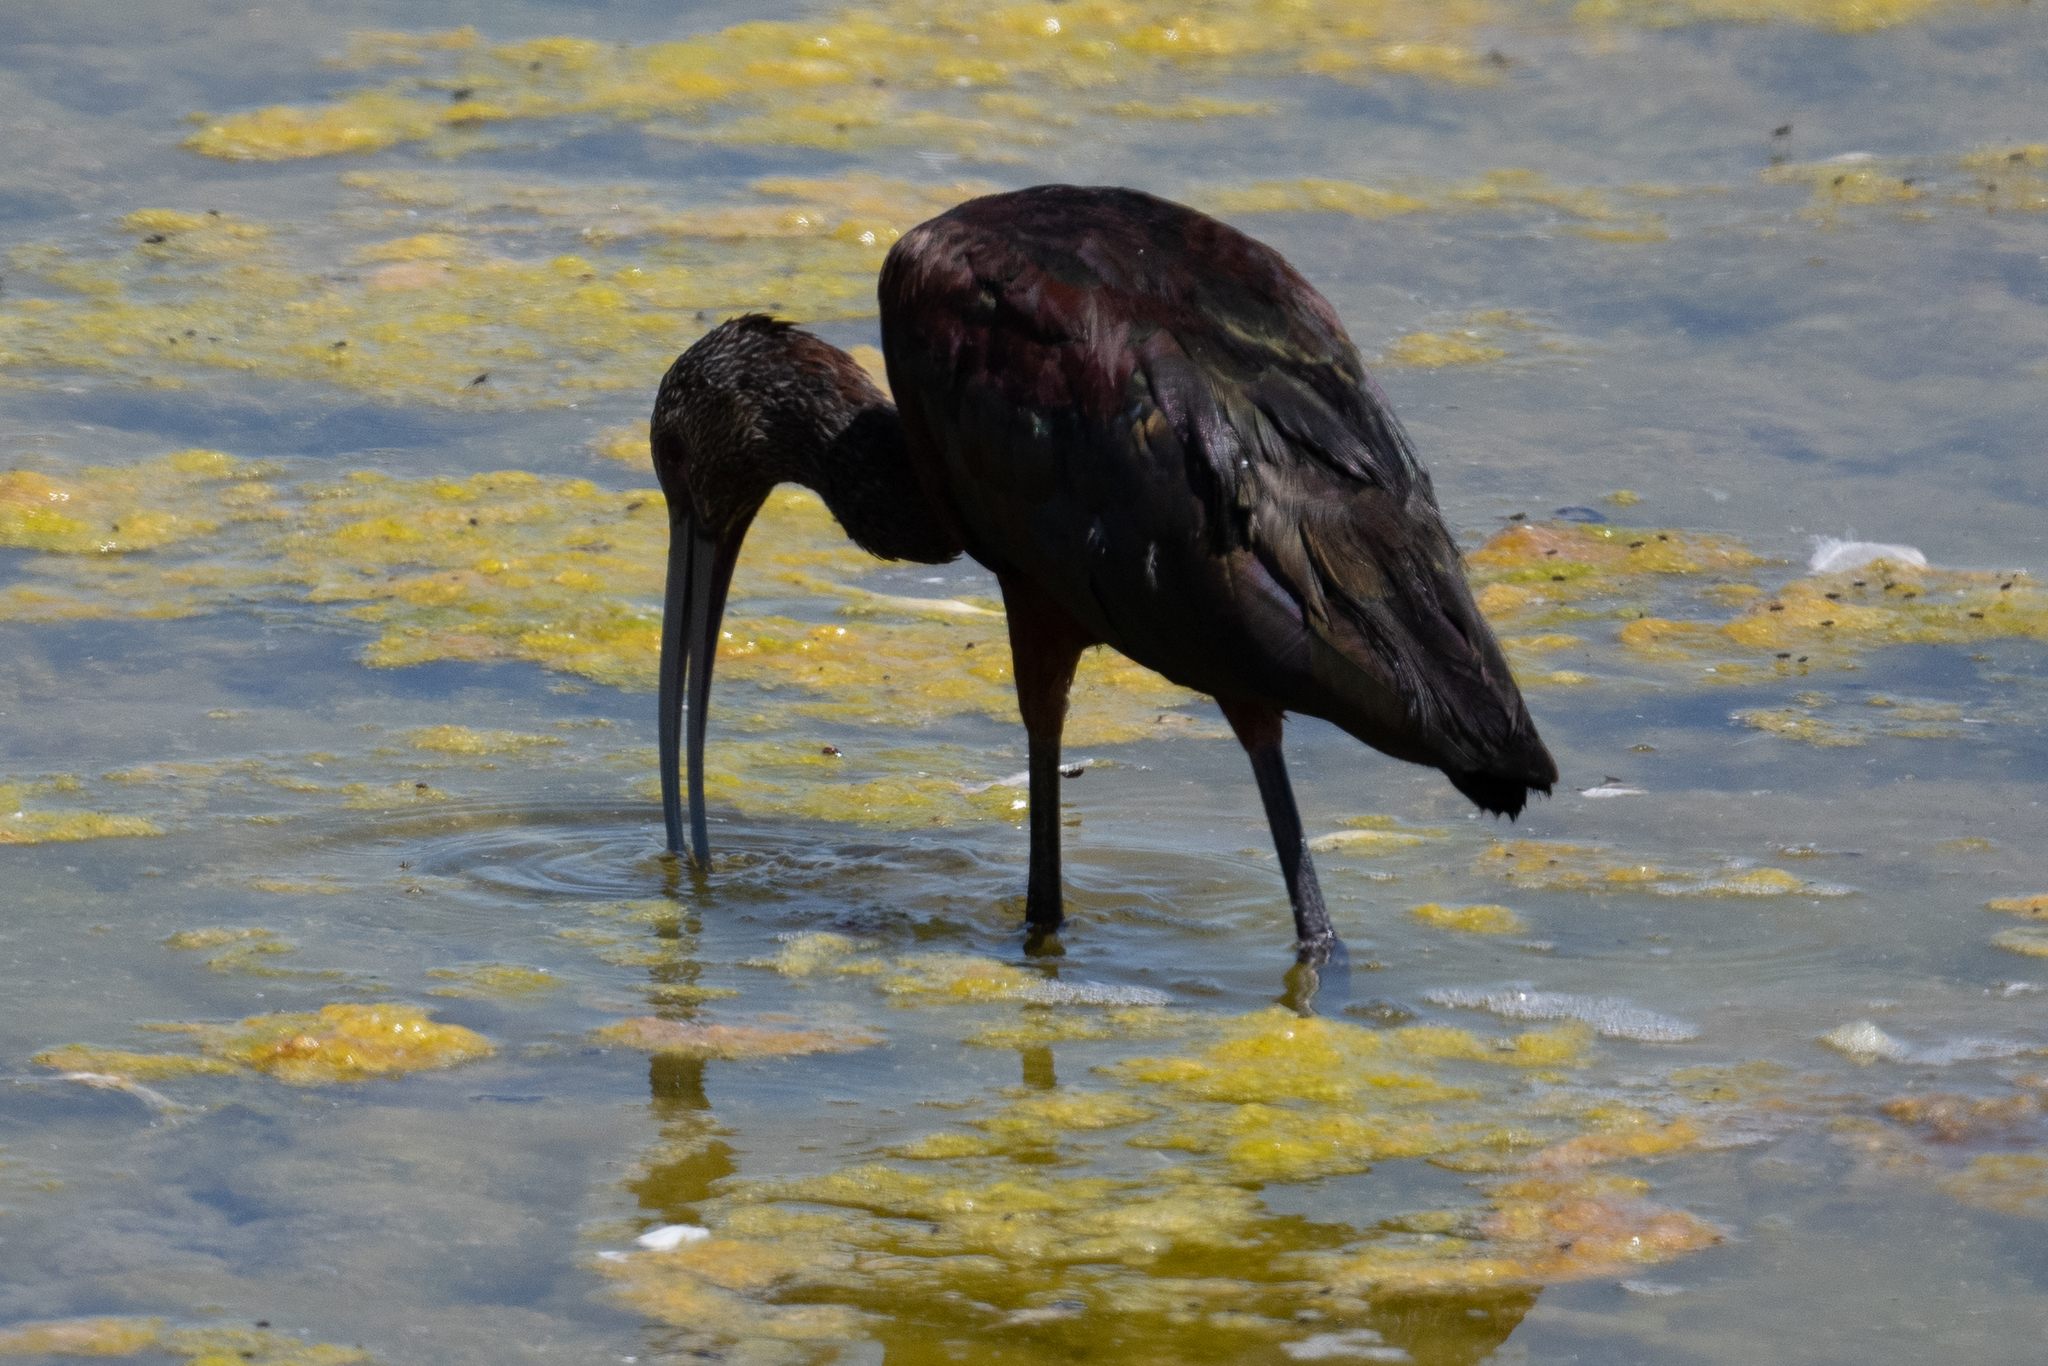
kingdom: Animalia
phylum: Chordata
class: Aves
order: Pelecaniformes
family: Threskiornithidae
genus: Plegadis
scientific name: Plegadis chihi
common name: White-faced ibis
